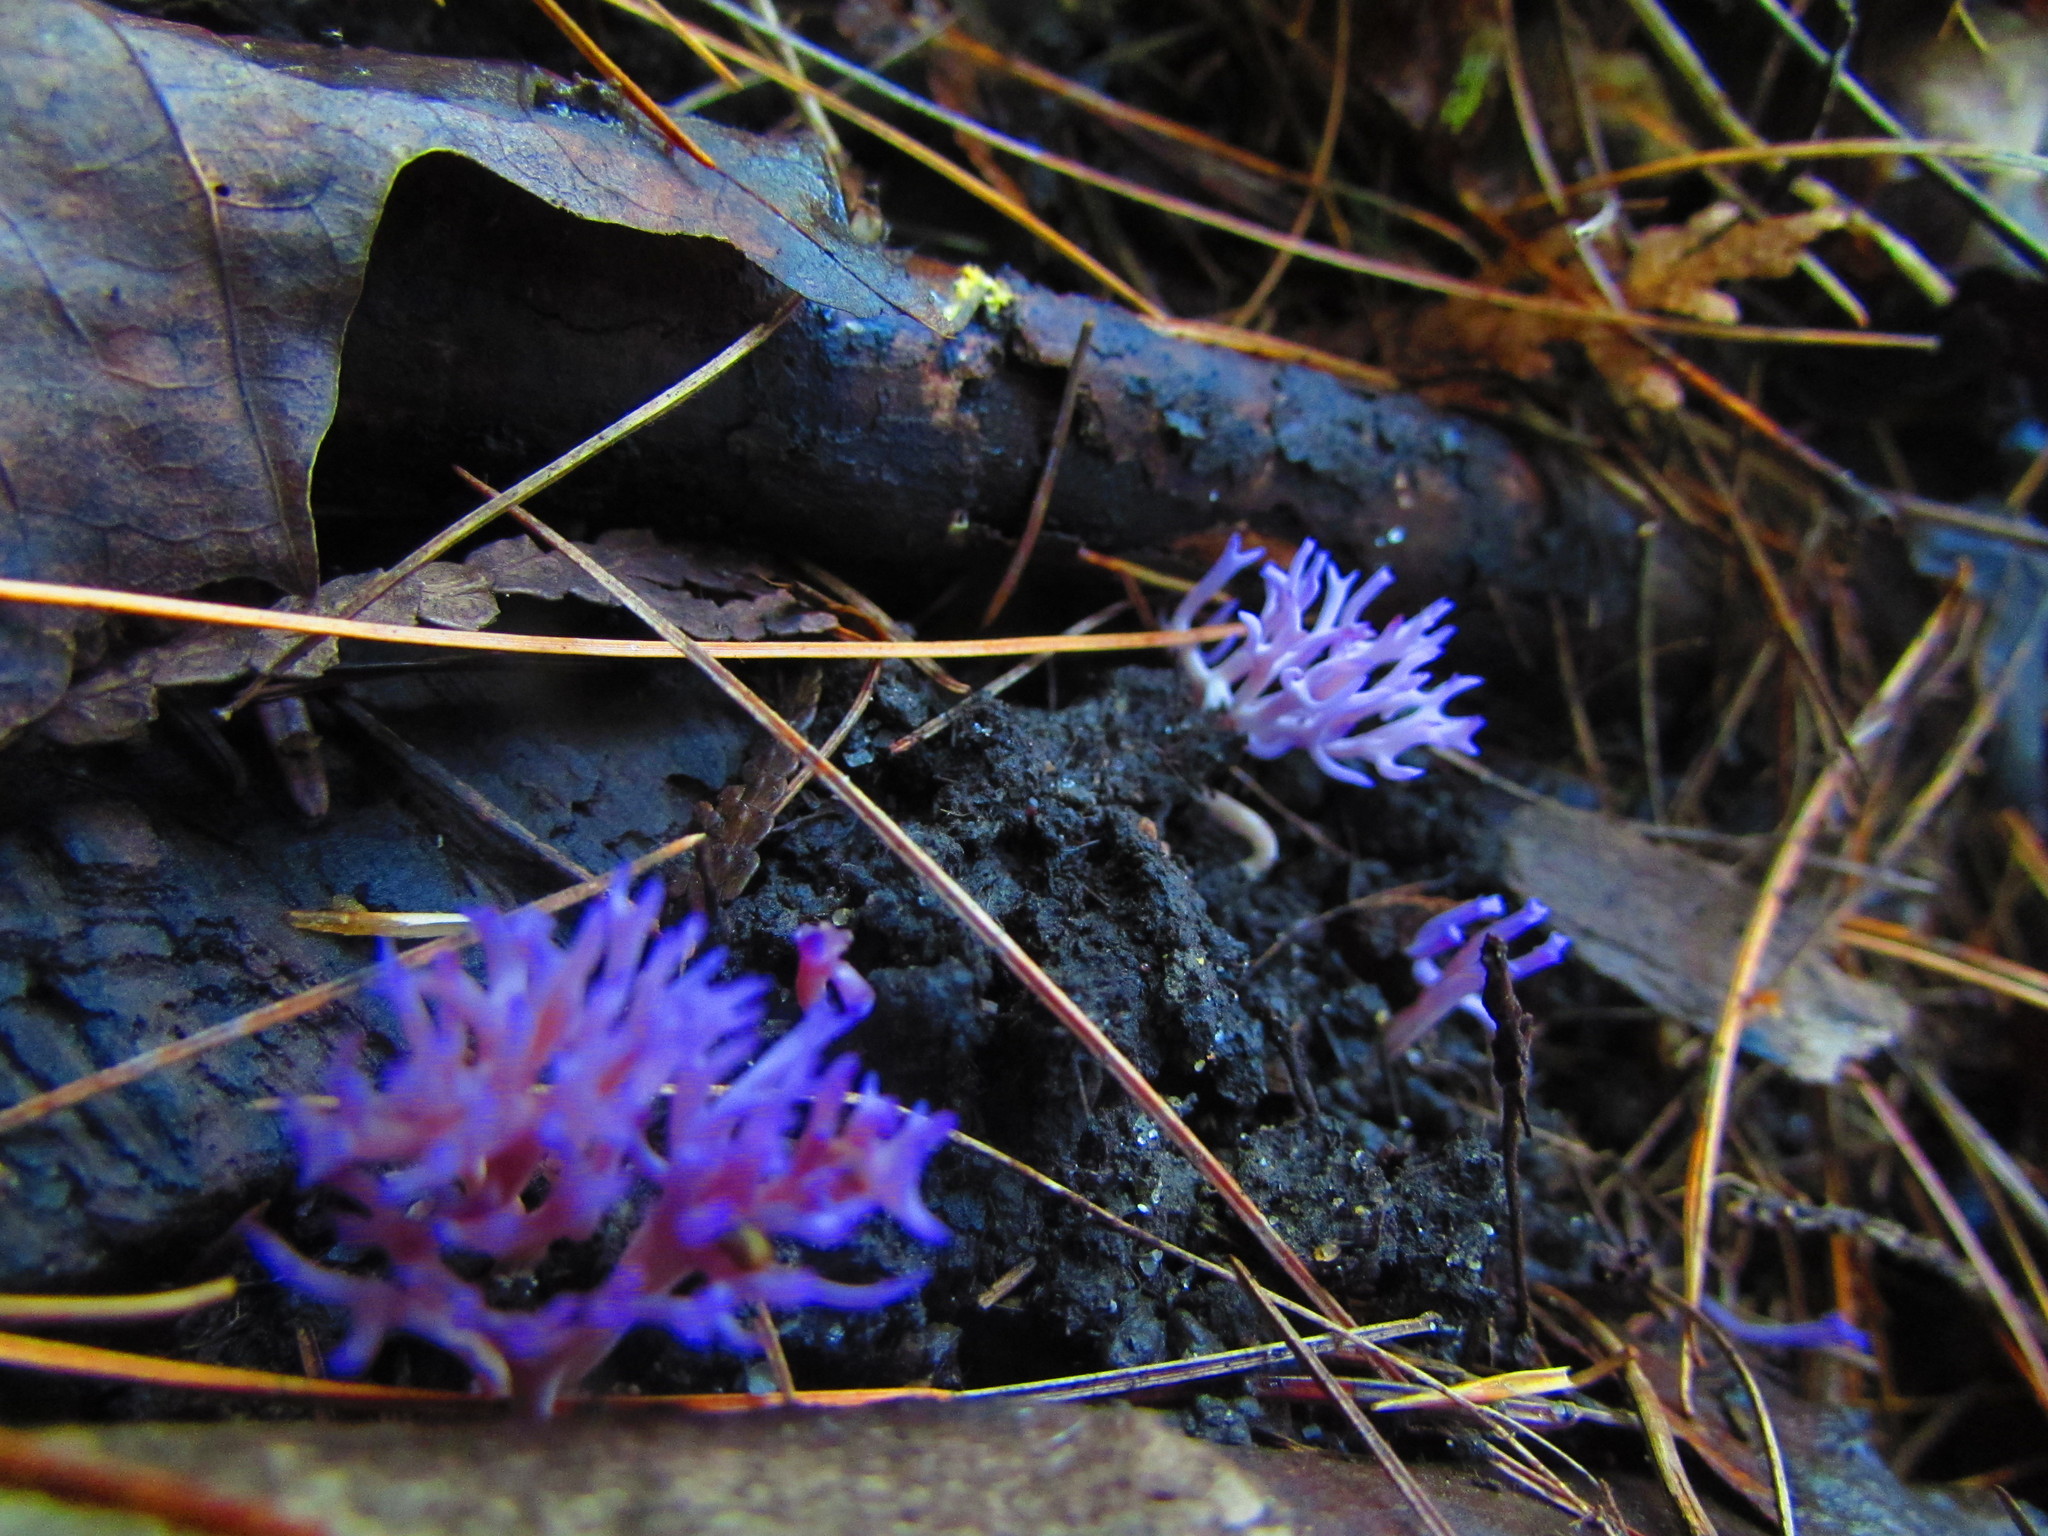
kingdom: Fungi
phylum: Basidiomycota
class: Agaricomycetes
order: Agaricales
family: Clavariaceae
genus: Clavaria
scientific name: Clavaria zollingeri
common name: Violet coral
